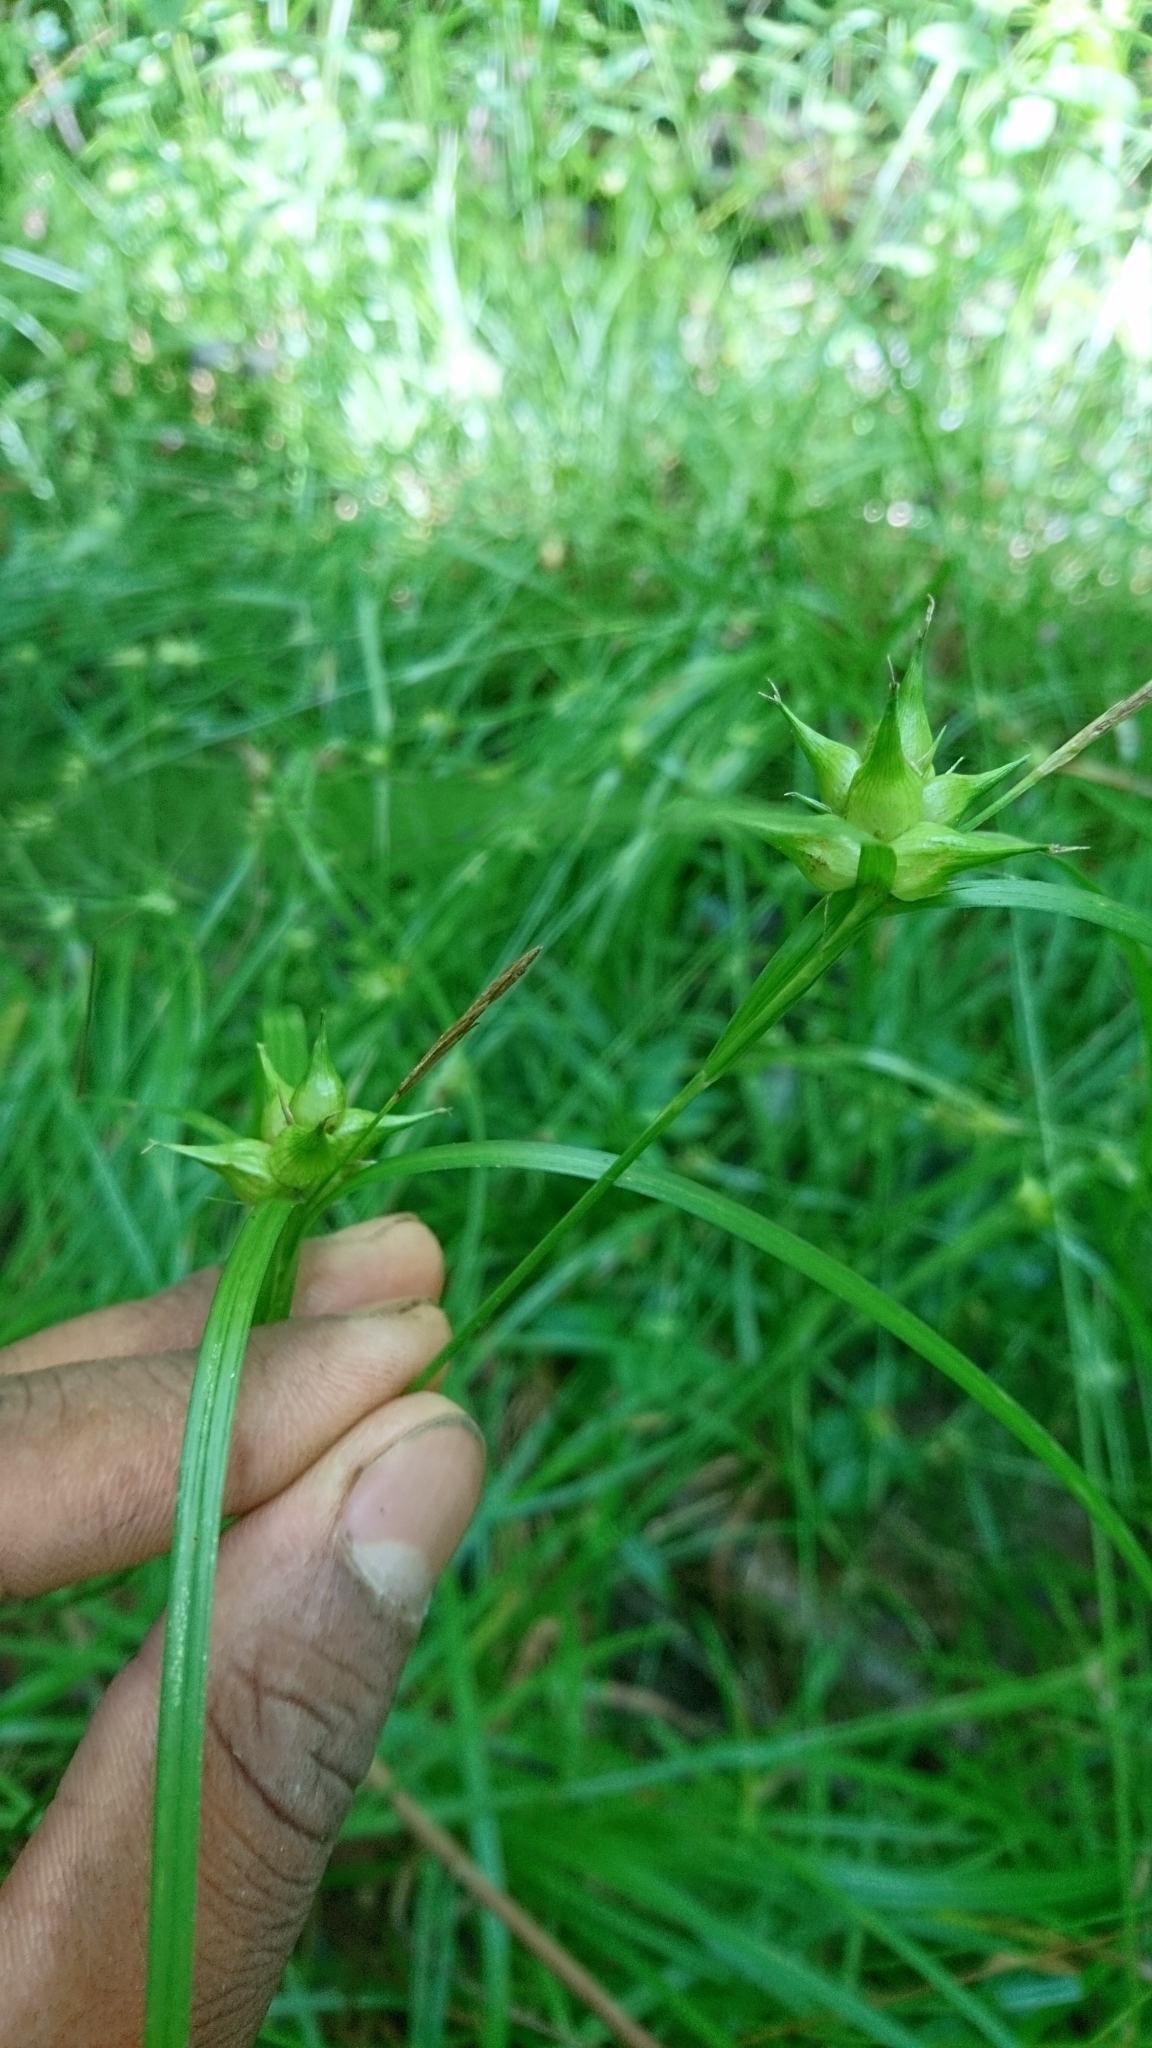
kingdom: Plantae
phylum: Tracheophyta
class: Liliopsida
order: Poales
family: Cyperaceae
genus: Carex
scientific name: Carex intumescens
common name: Greater bladder sedge
